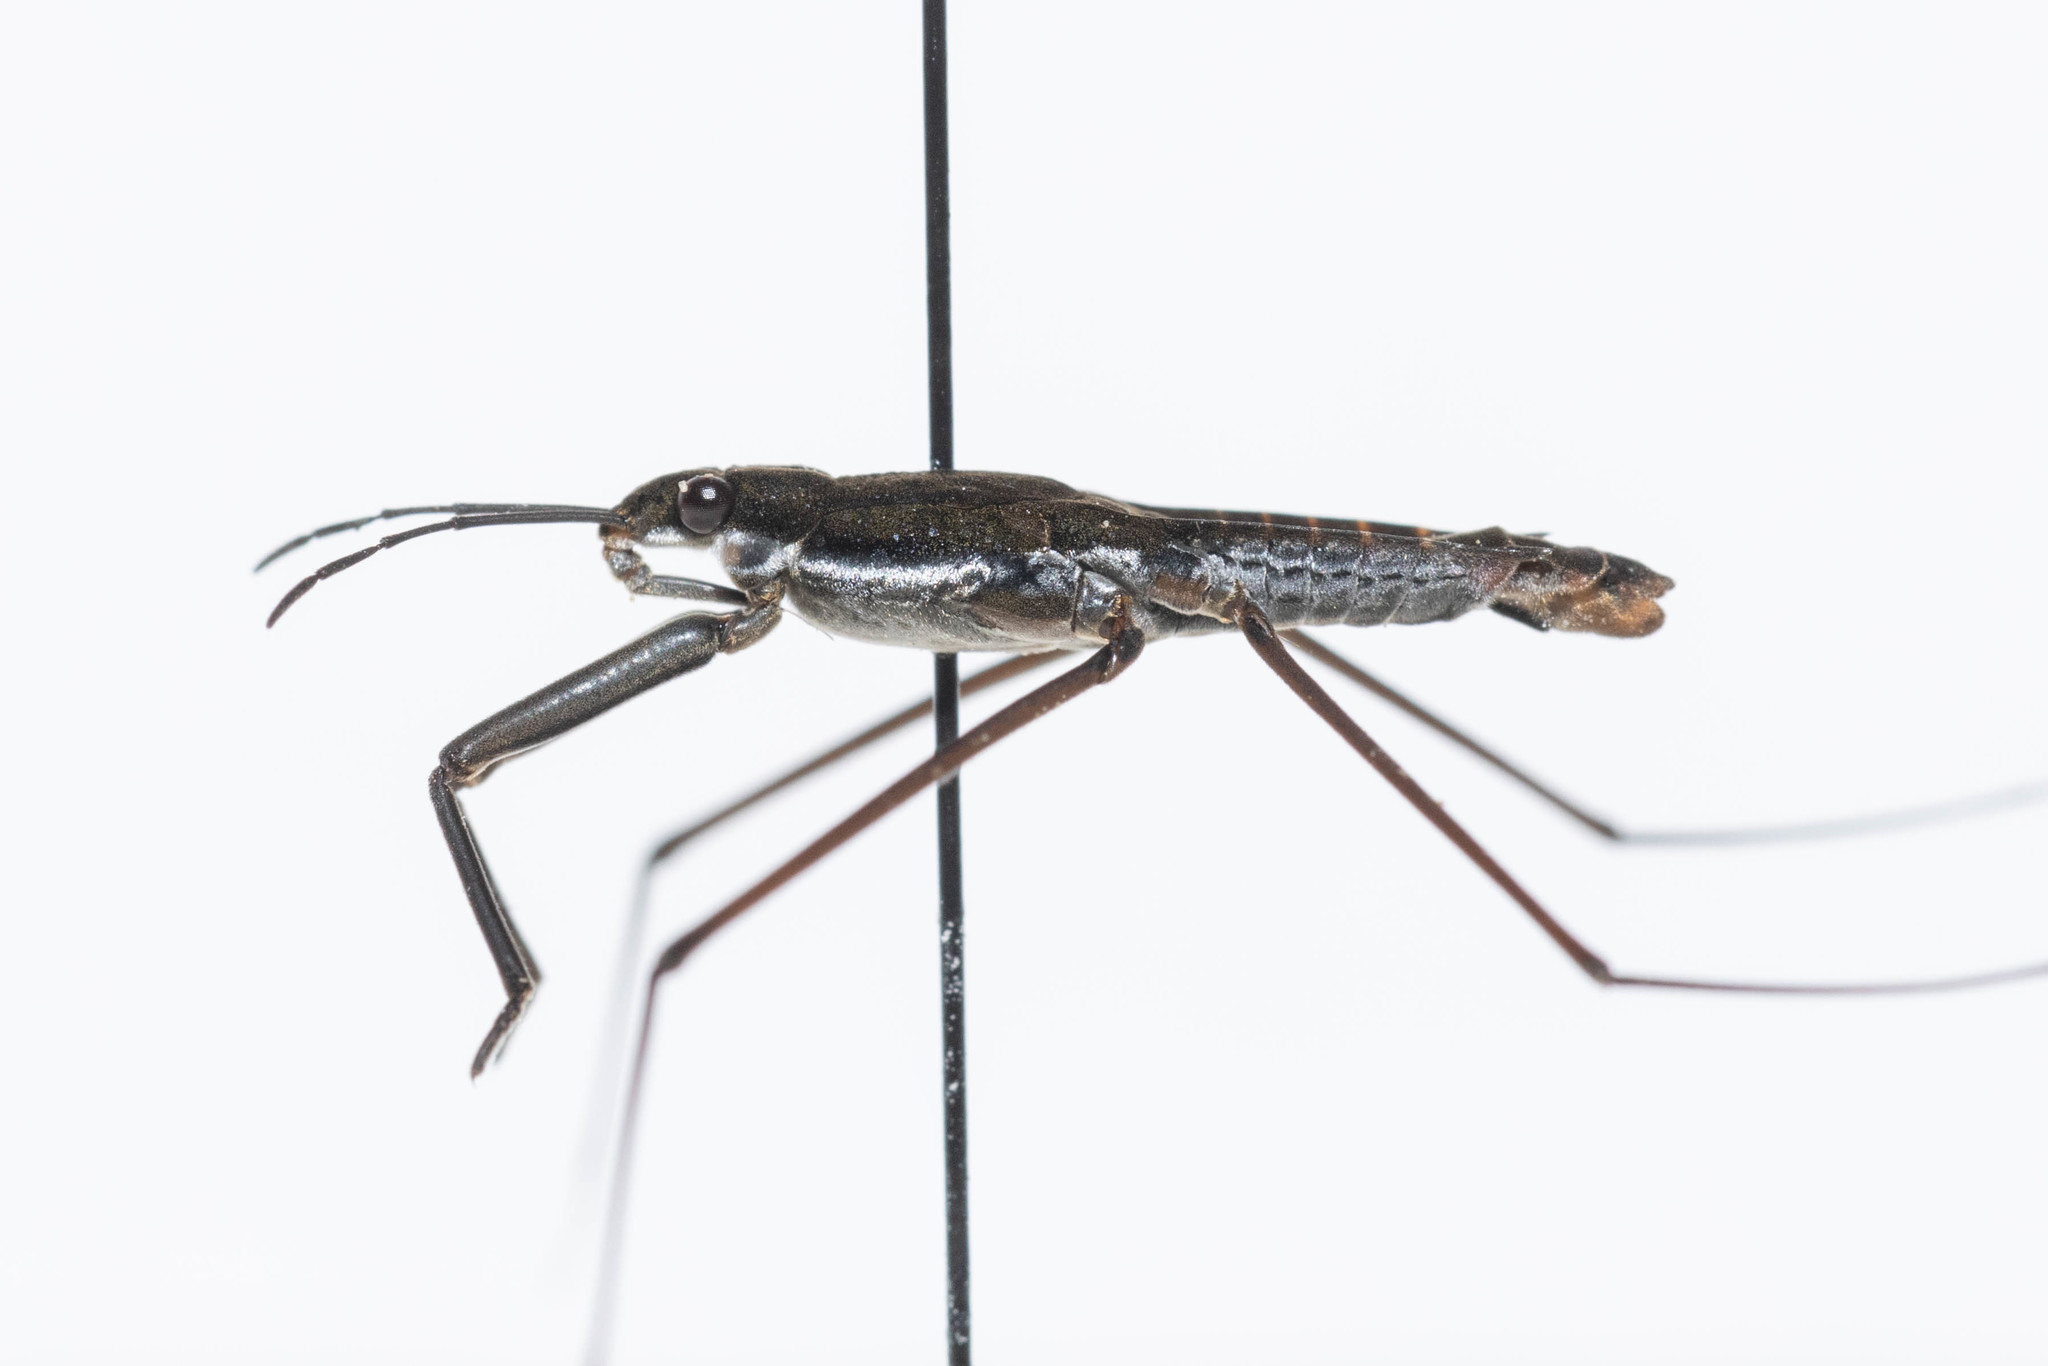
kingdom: Animalia
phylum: Arthropoda
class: Insecta
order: Hemiptera
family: Gerridae
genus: Aquarius
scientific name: Aquarius remigis
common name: Common water strider
